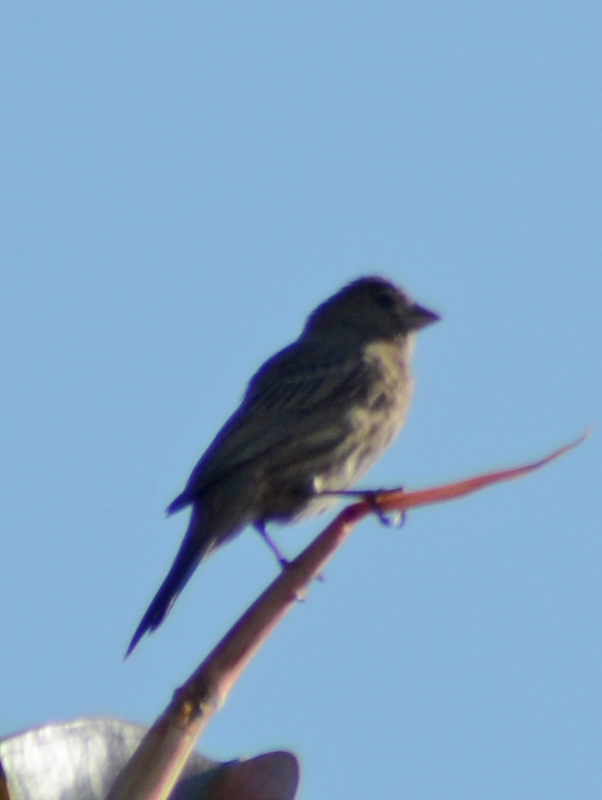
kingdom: Animalia
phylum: Chordata
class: Aves
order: Passeriformes
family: Fringillidae
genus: Haemorhous
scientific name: Haemorhous mexicanus
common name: House finch
